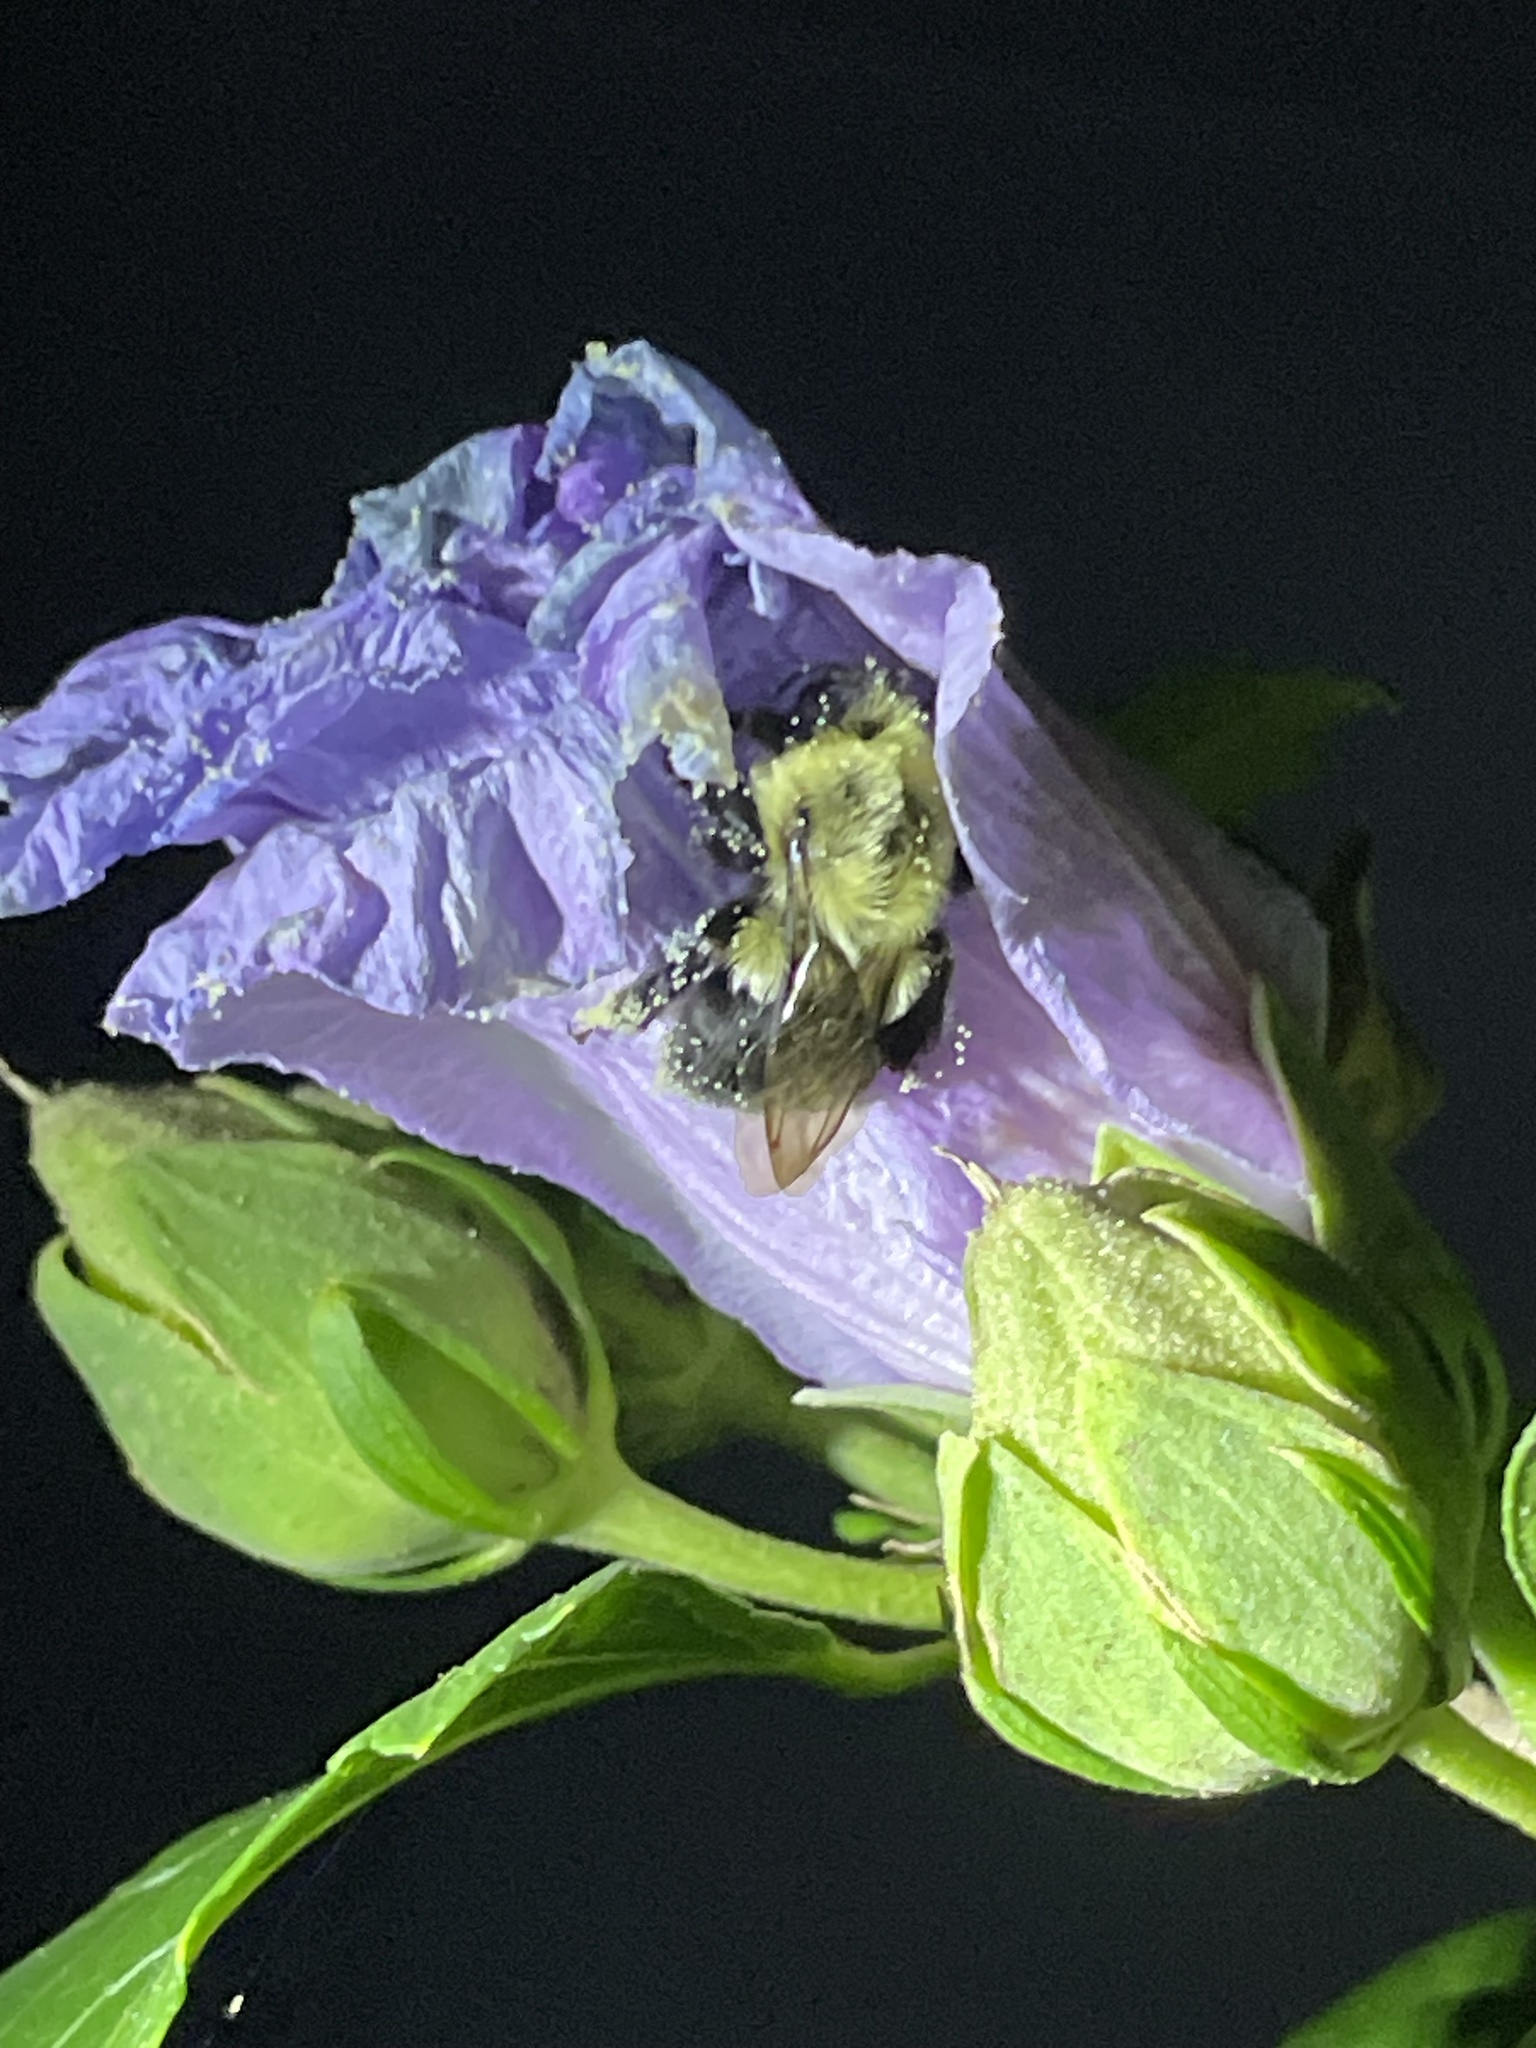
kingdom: Animalia
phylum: Arthropoda
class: Insecta
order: Hymenoptera
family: Apidae
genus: Bombus
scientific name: Bombus impatiens
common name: Common eastern bumble bee
